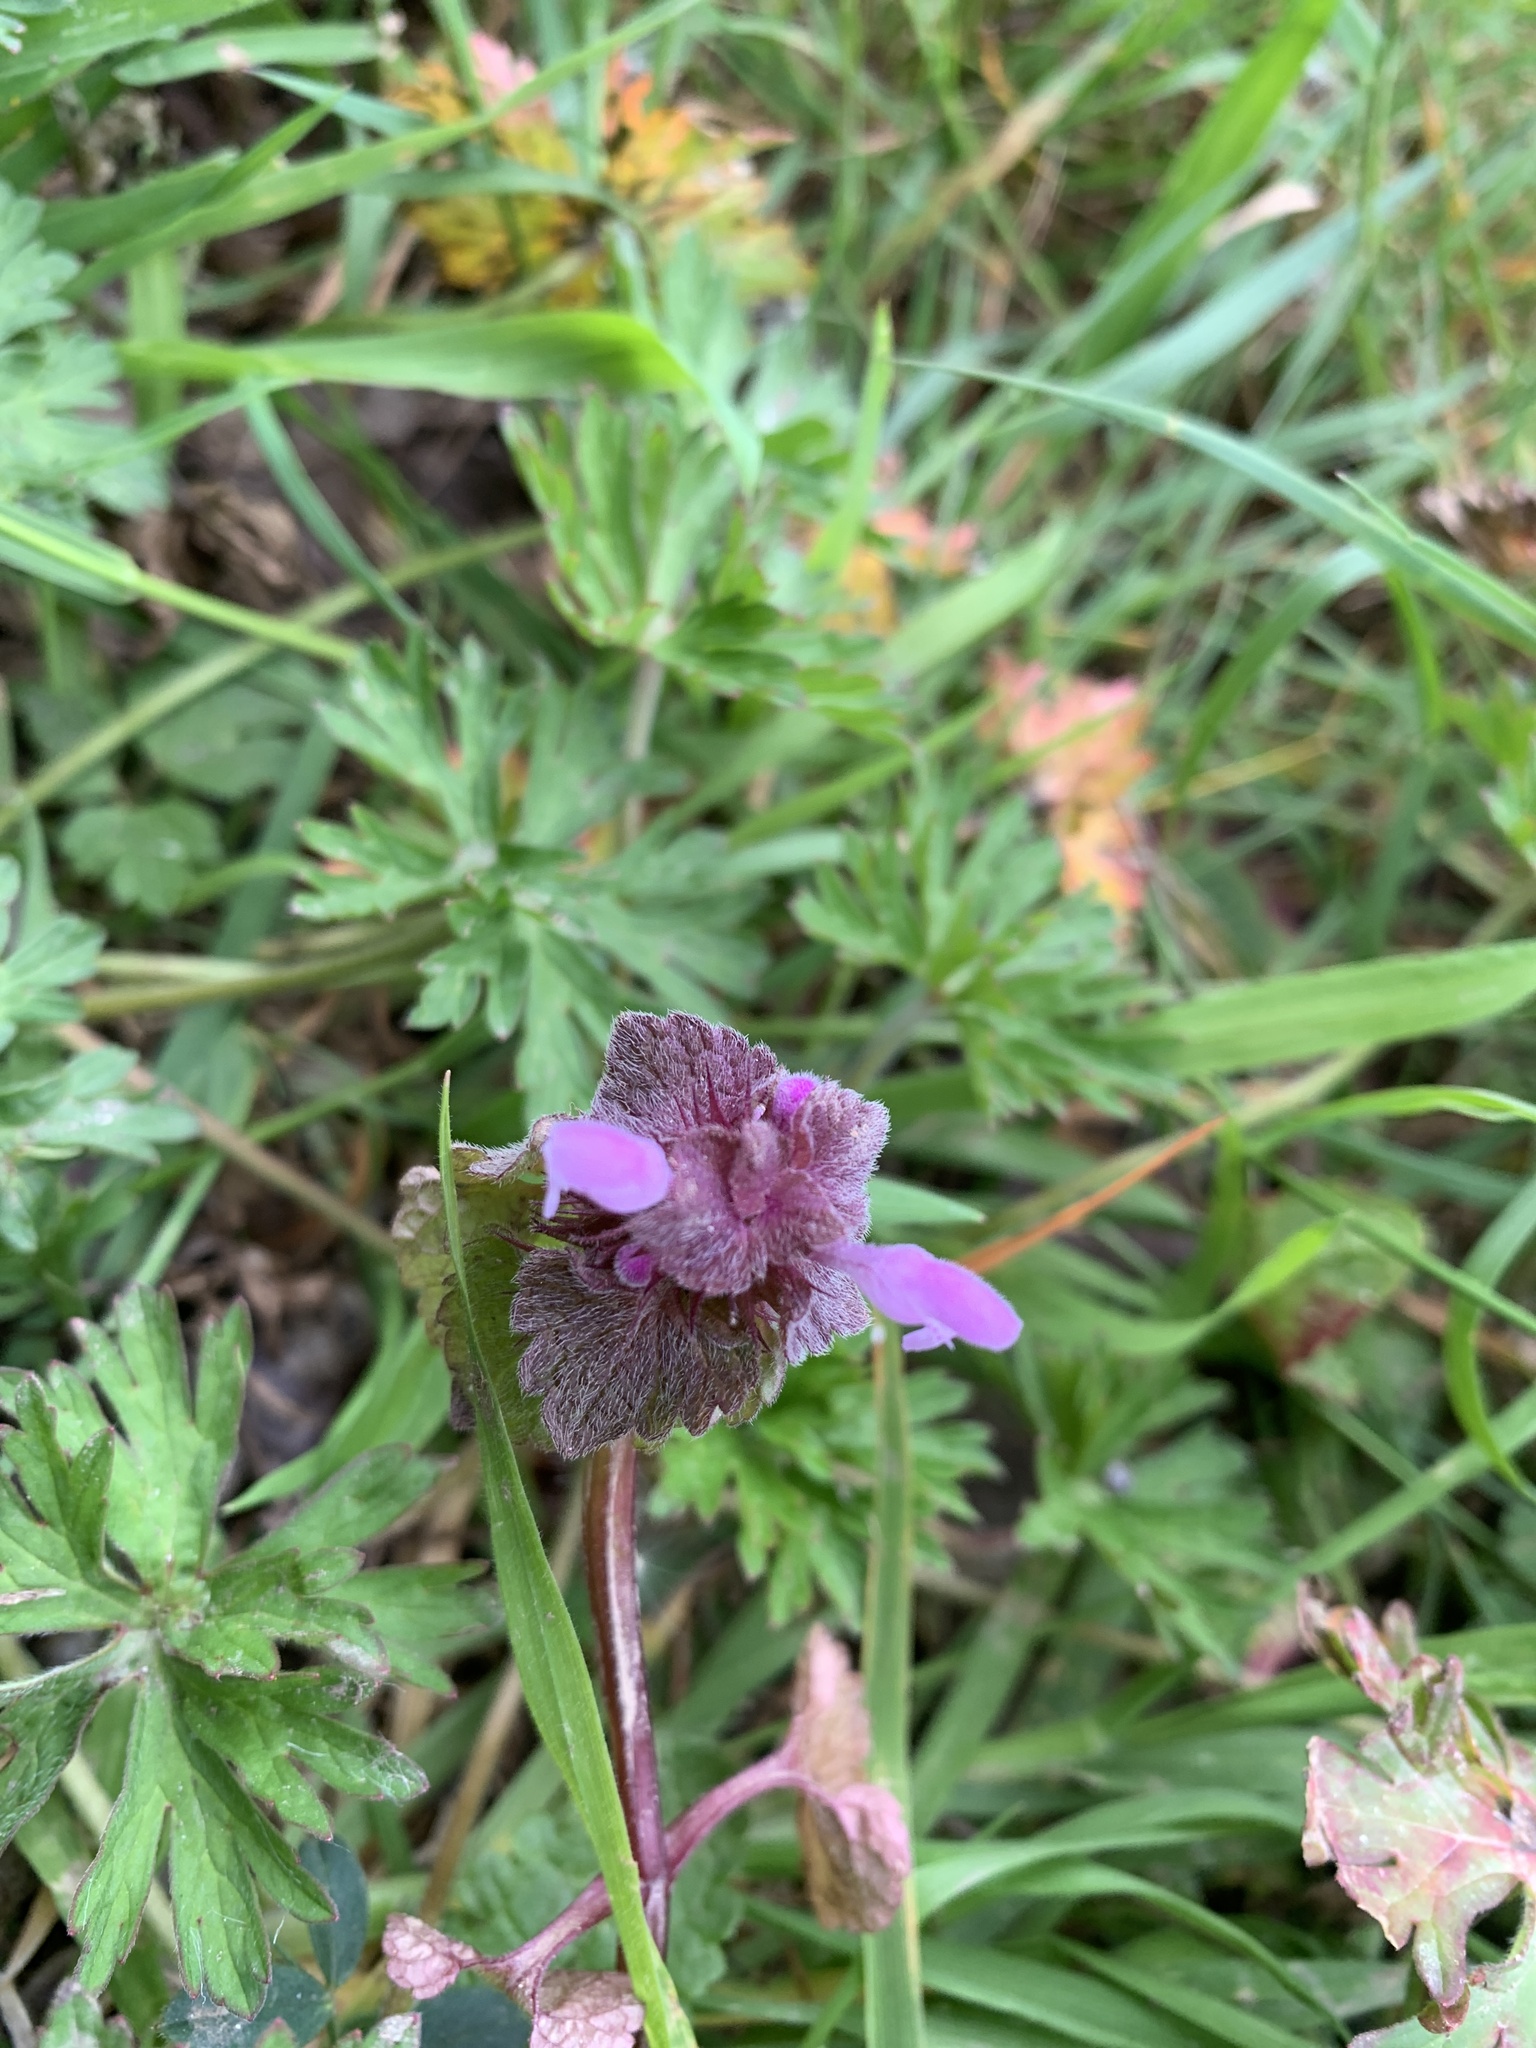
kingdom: Plantae
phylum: Tracheophyta
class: Magnoliopsida
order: Lamiales
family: Lamiaceae
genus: Lamium
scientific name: Lamium purpureum
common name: Red dead-nettle
